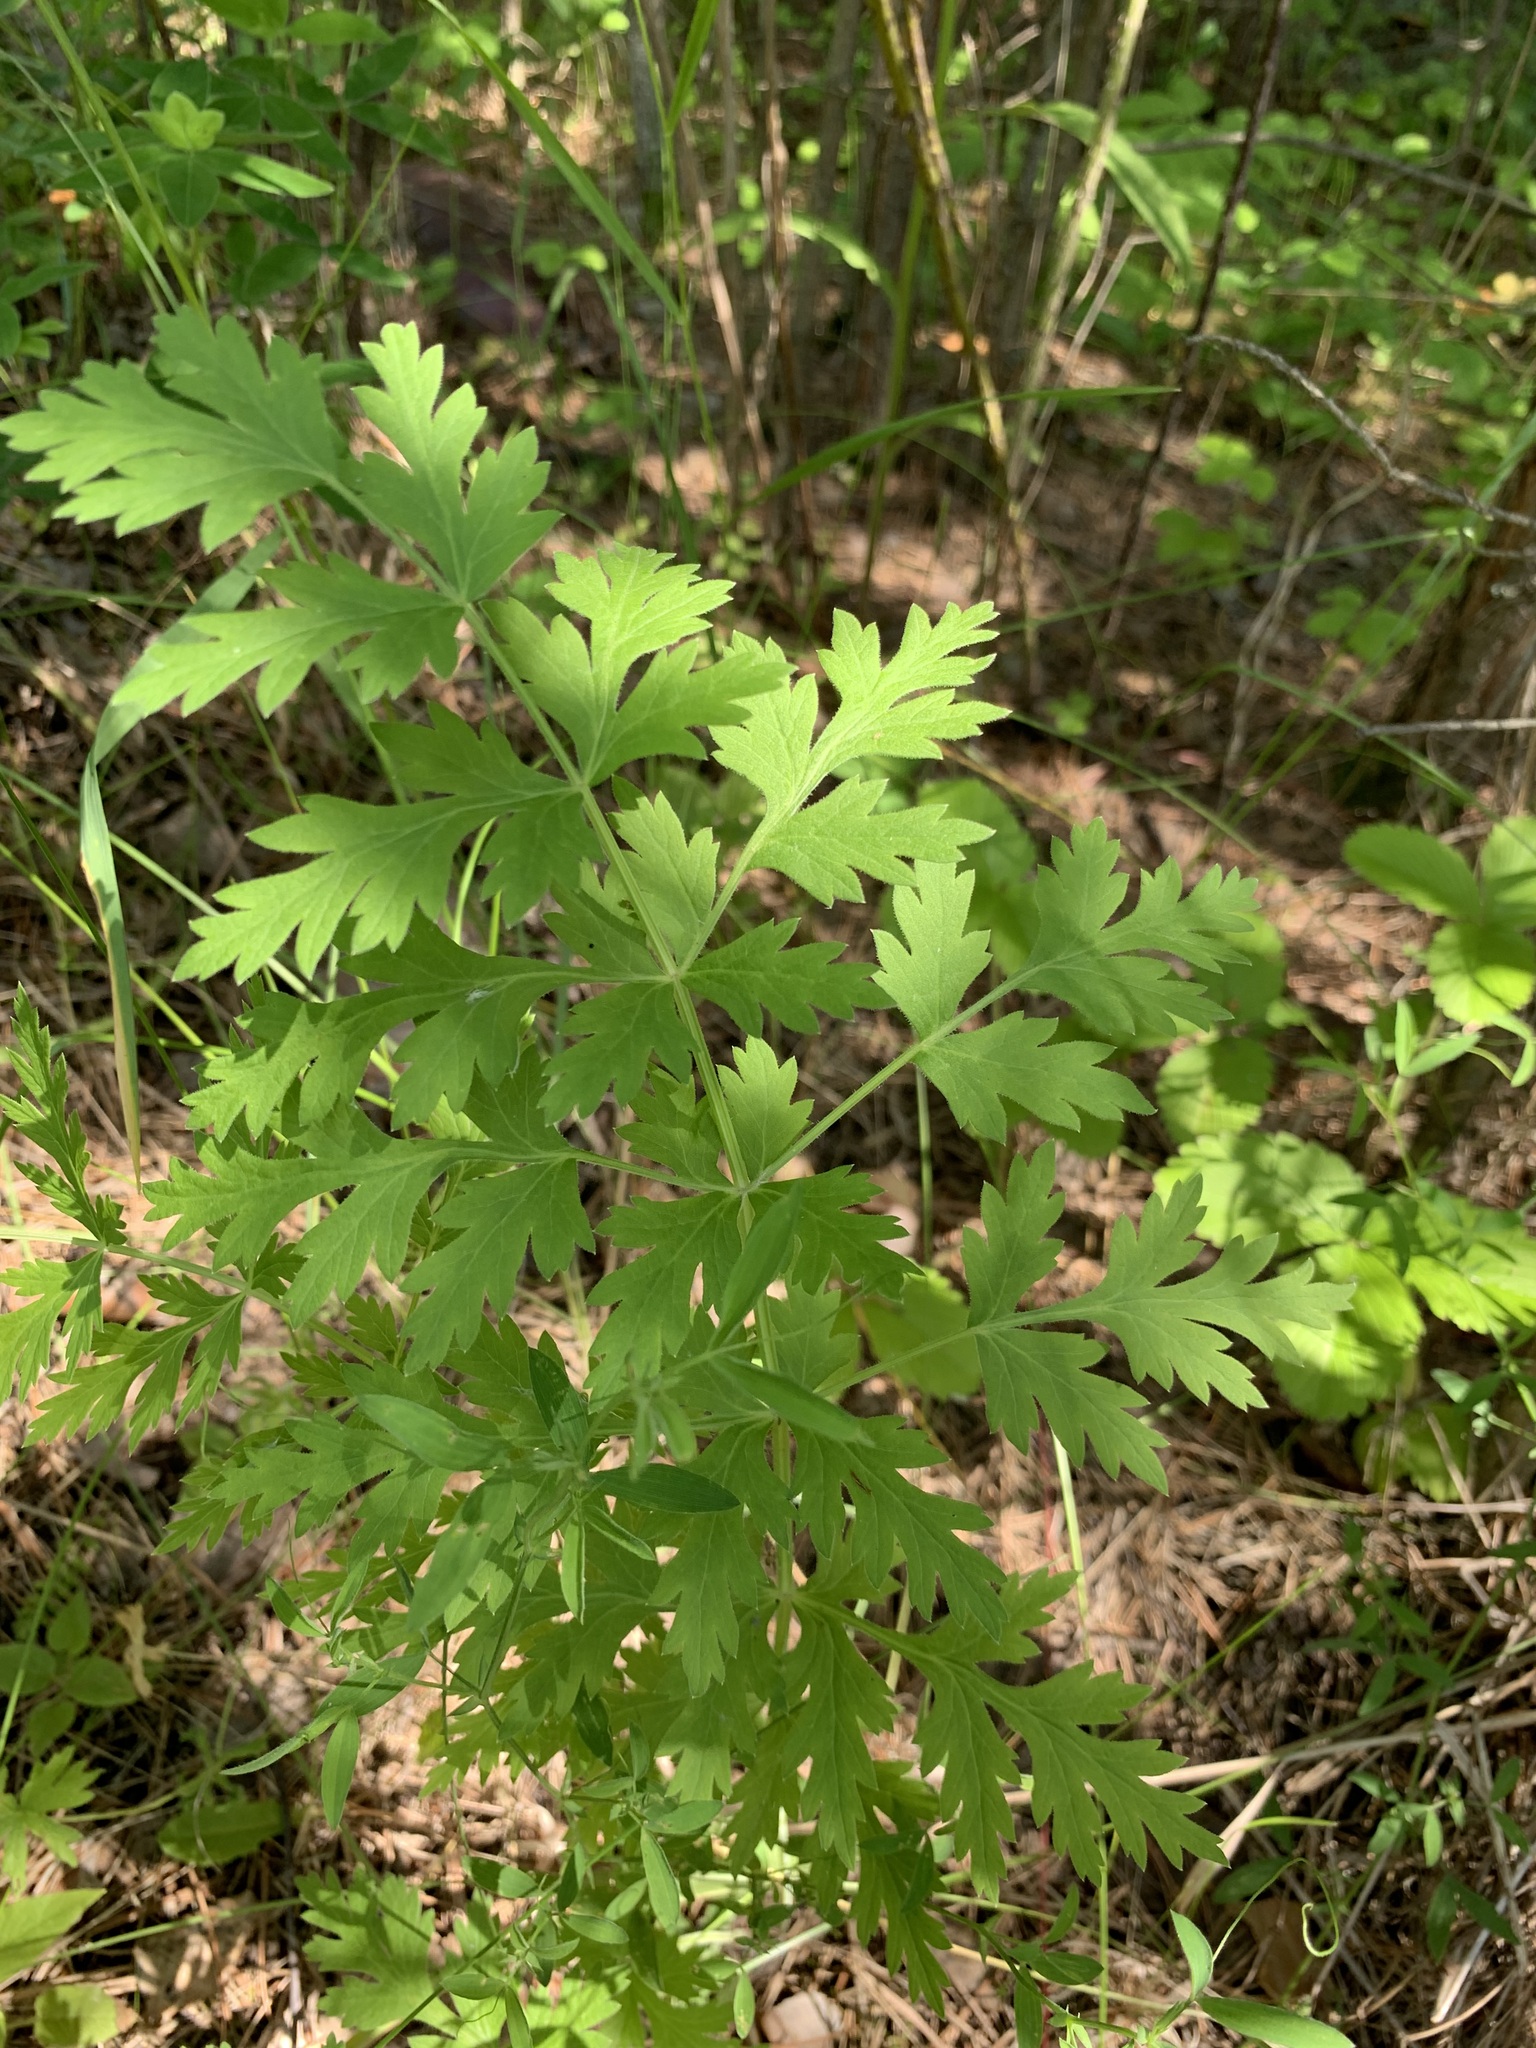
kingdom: Plantae
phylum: Tracheophyta
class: Magnoliopsida
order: Apiales
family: Apiaceae
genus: Seseli
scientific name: Seseli libanotis
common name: Mooncarrot
